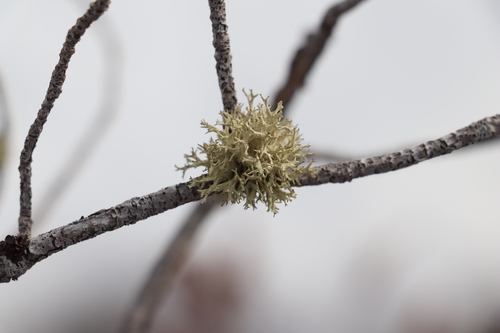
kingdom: Fungi
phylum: Ascomycota
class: Lecanoromycetes
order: Lecanorales
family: Parmeliaceae
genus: Evernia
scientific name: Evernia mesomorpha
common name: Boreal oak moss lichen
